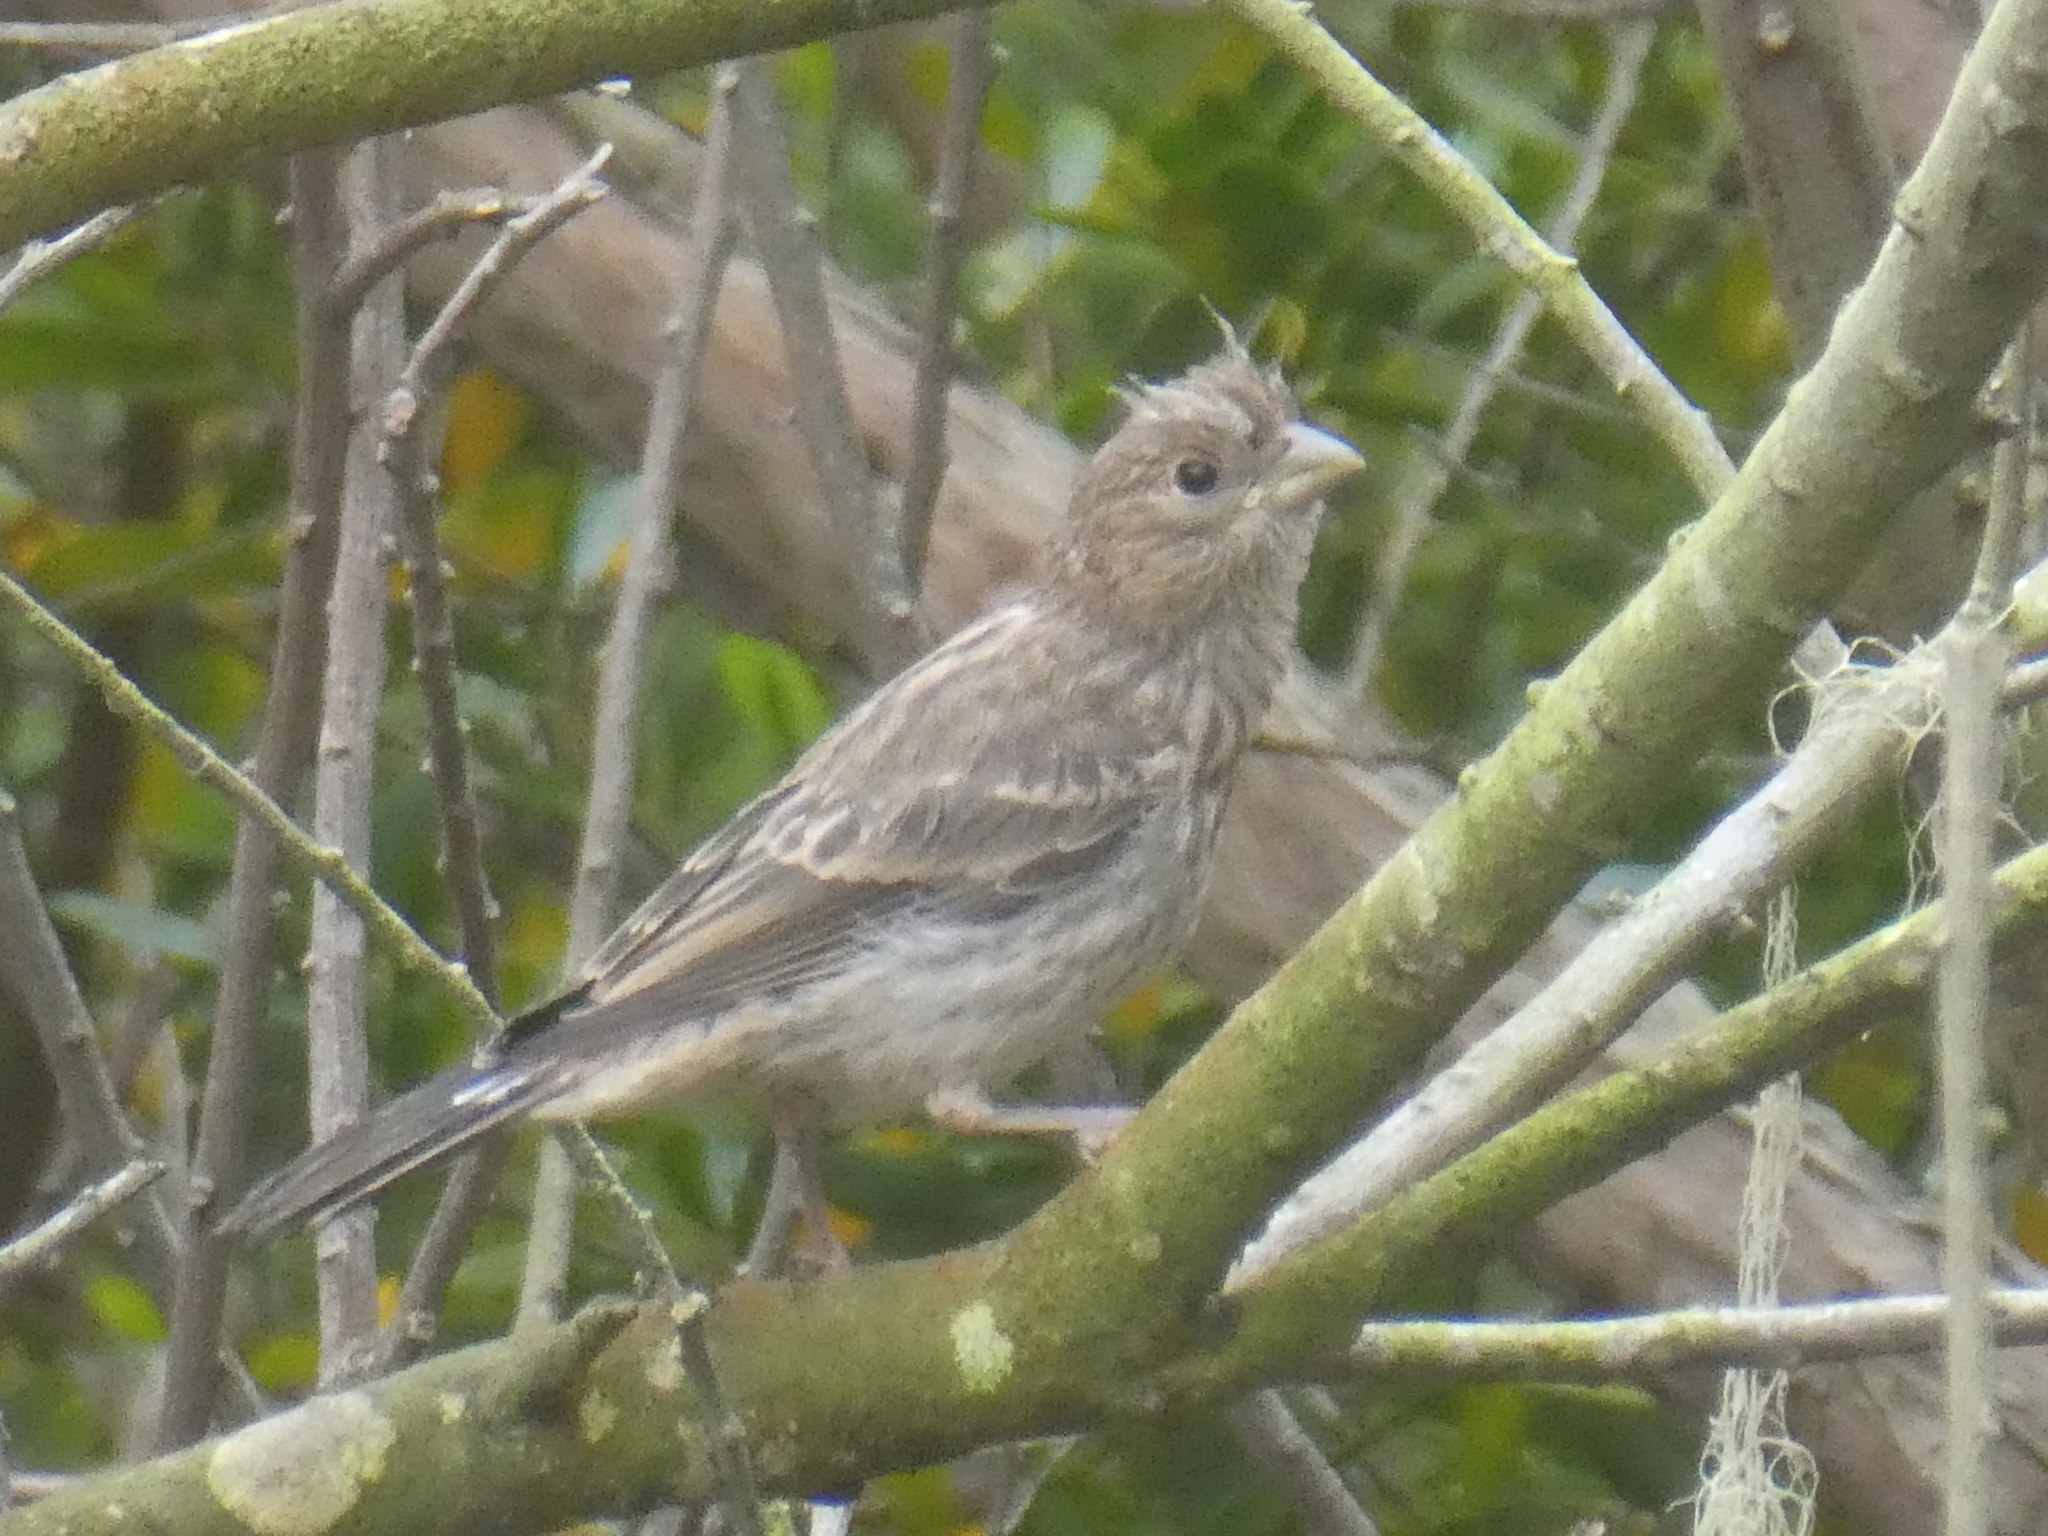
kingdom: Animalia
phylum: Chordata
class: Aves
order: Passeriformes
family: Fringillidae
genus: Haemorhous
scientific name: Haemorhous mexicanus
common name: House finch
